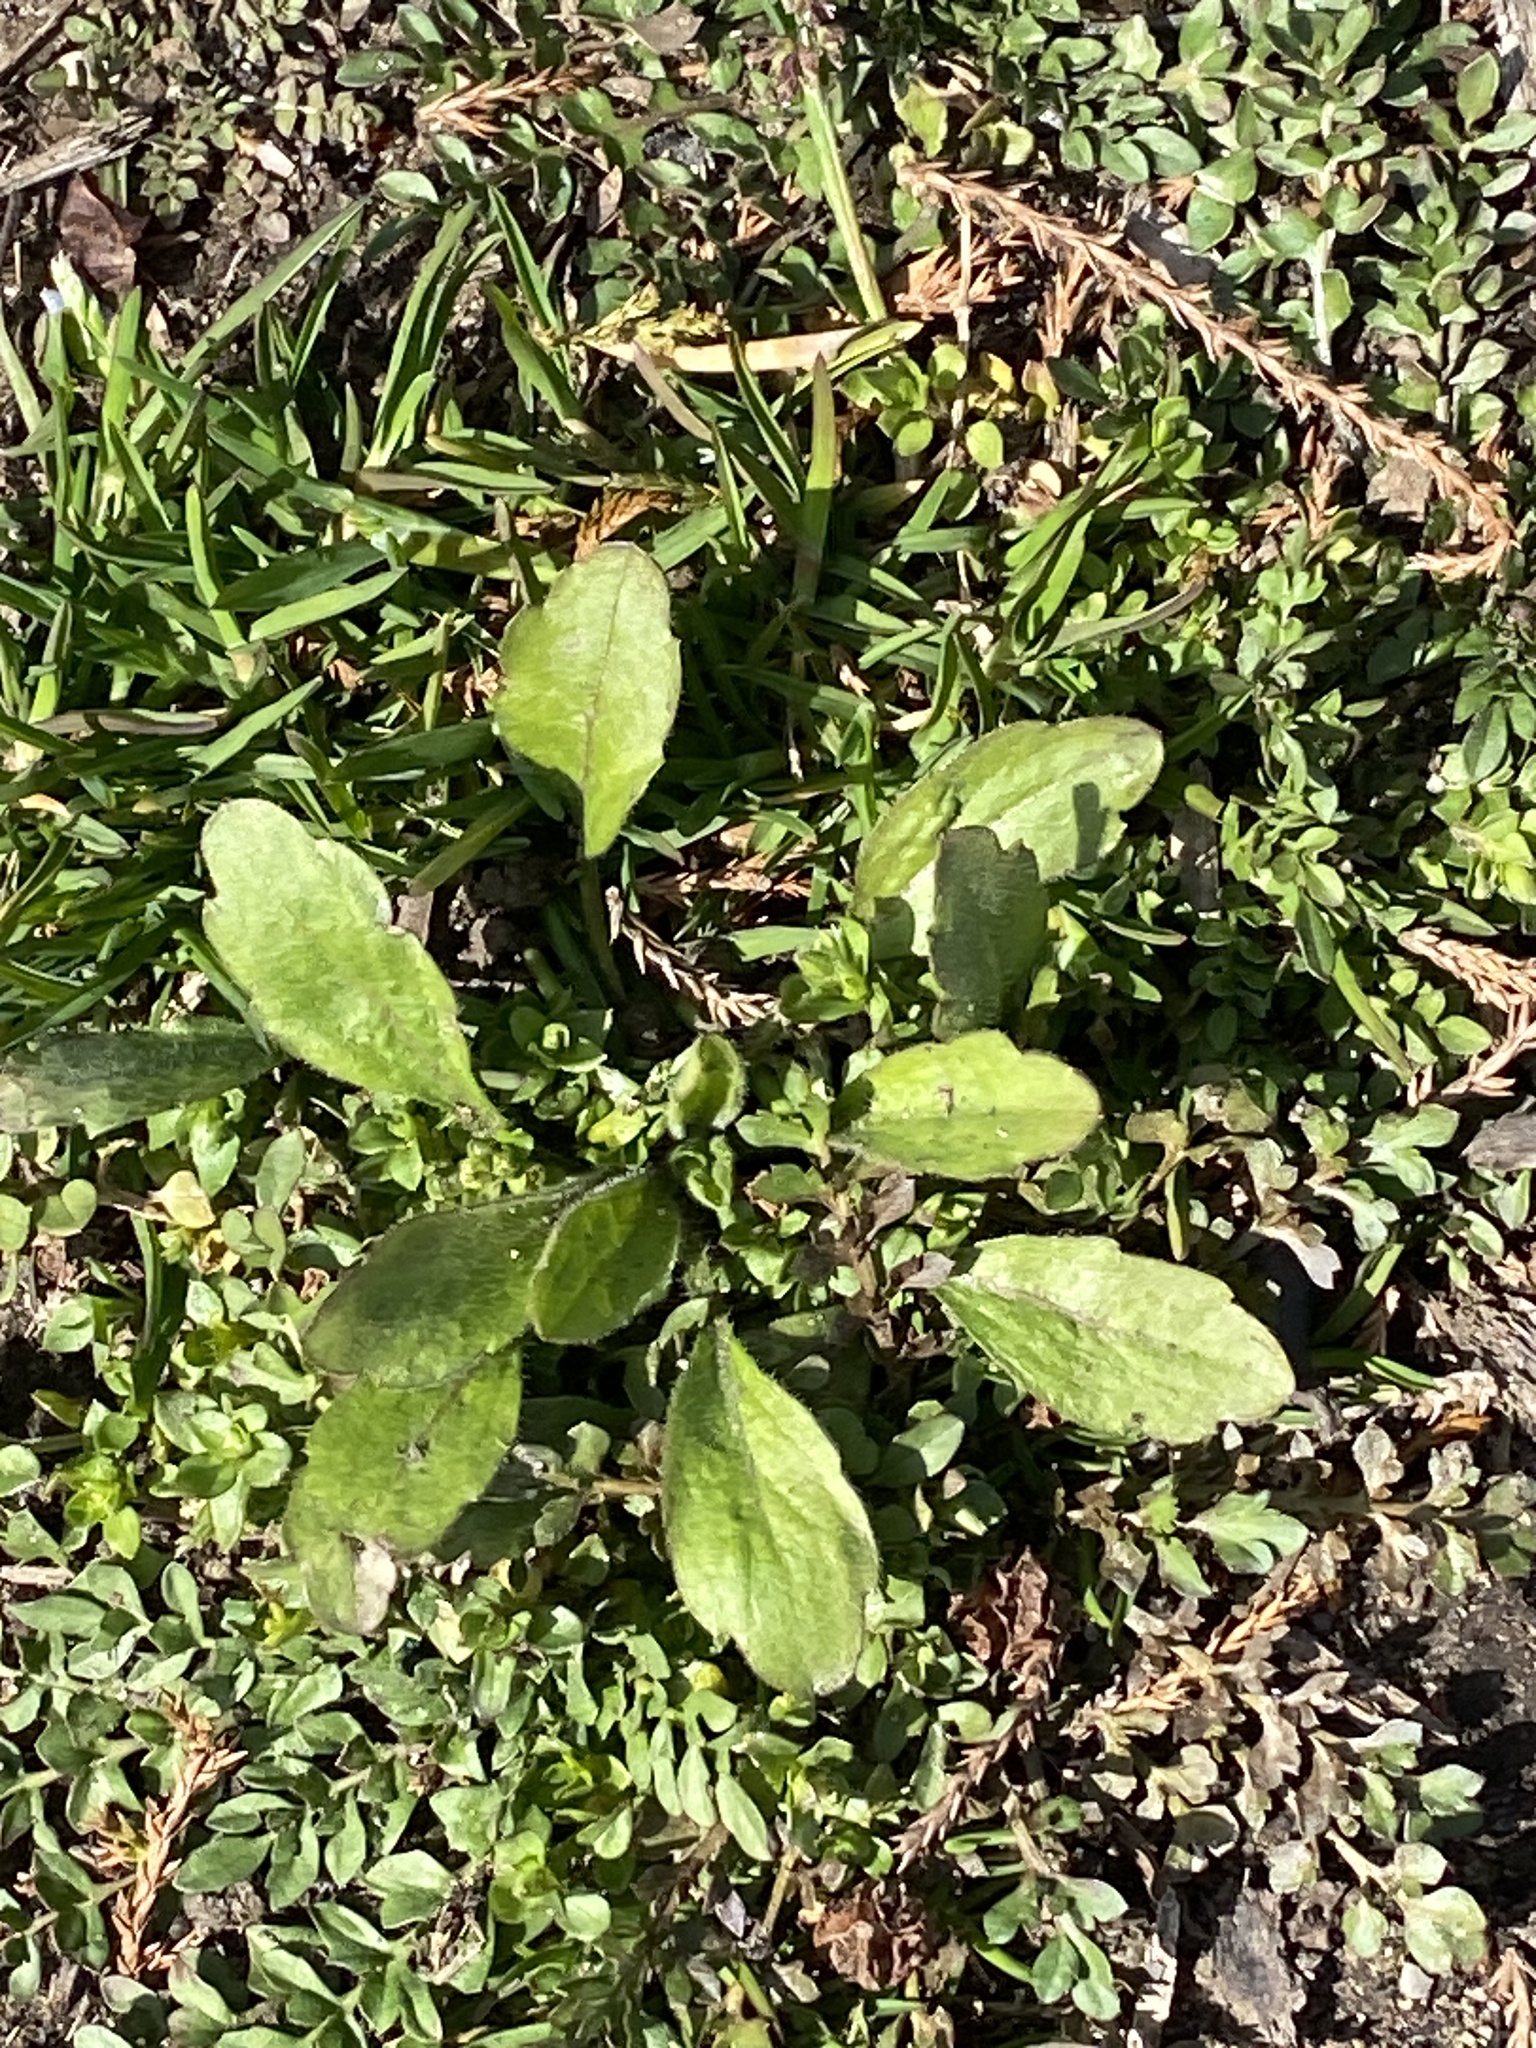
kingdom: Plantae
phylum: Tracheophyta
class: Magnoliopsida
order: Asterales
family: Asteraceae
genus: Erigeron
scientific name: Erigeron canadensis
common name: Canadian fleabane
